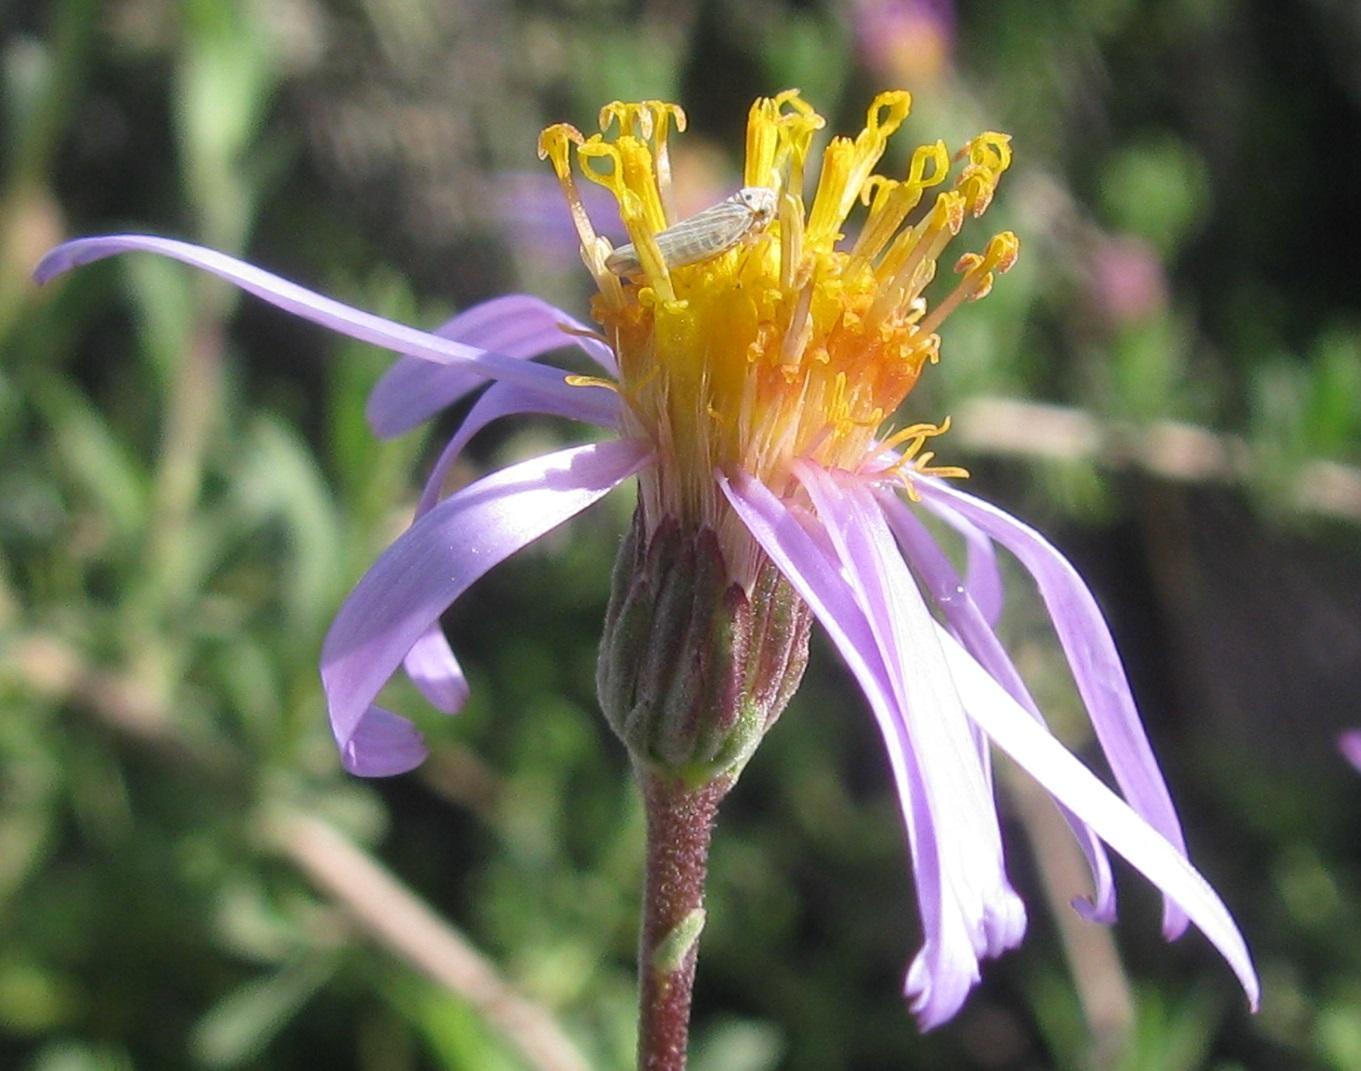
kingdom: Plantae
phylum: Tracheophyta
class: Magnoliopsida
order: Asterales
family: Asteraceae
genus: Felicia
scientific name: Felicia brevifolia
